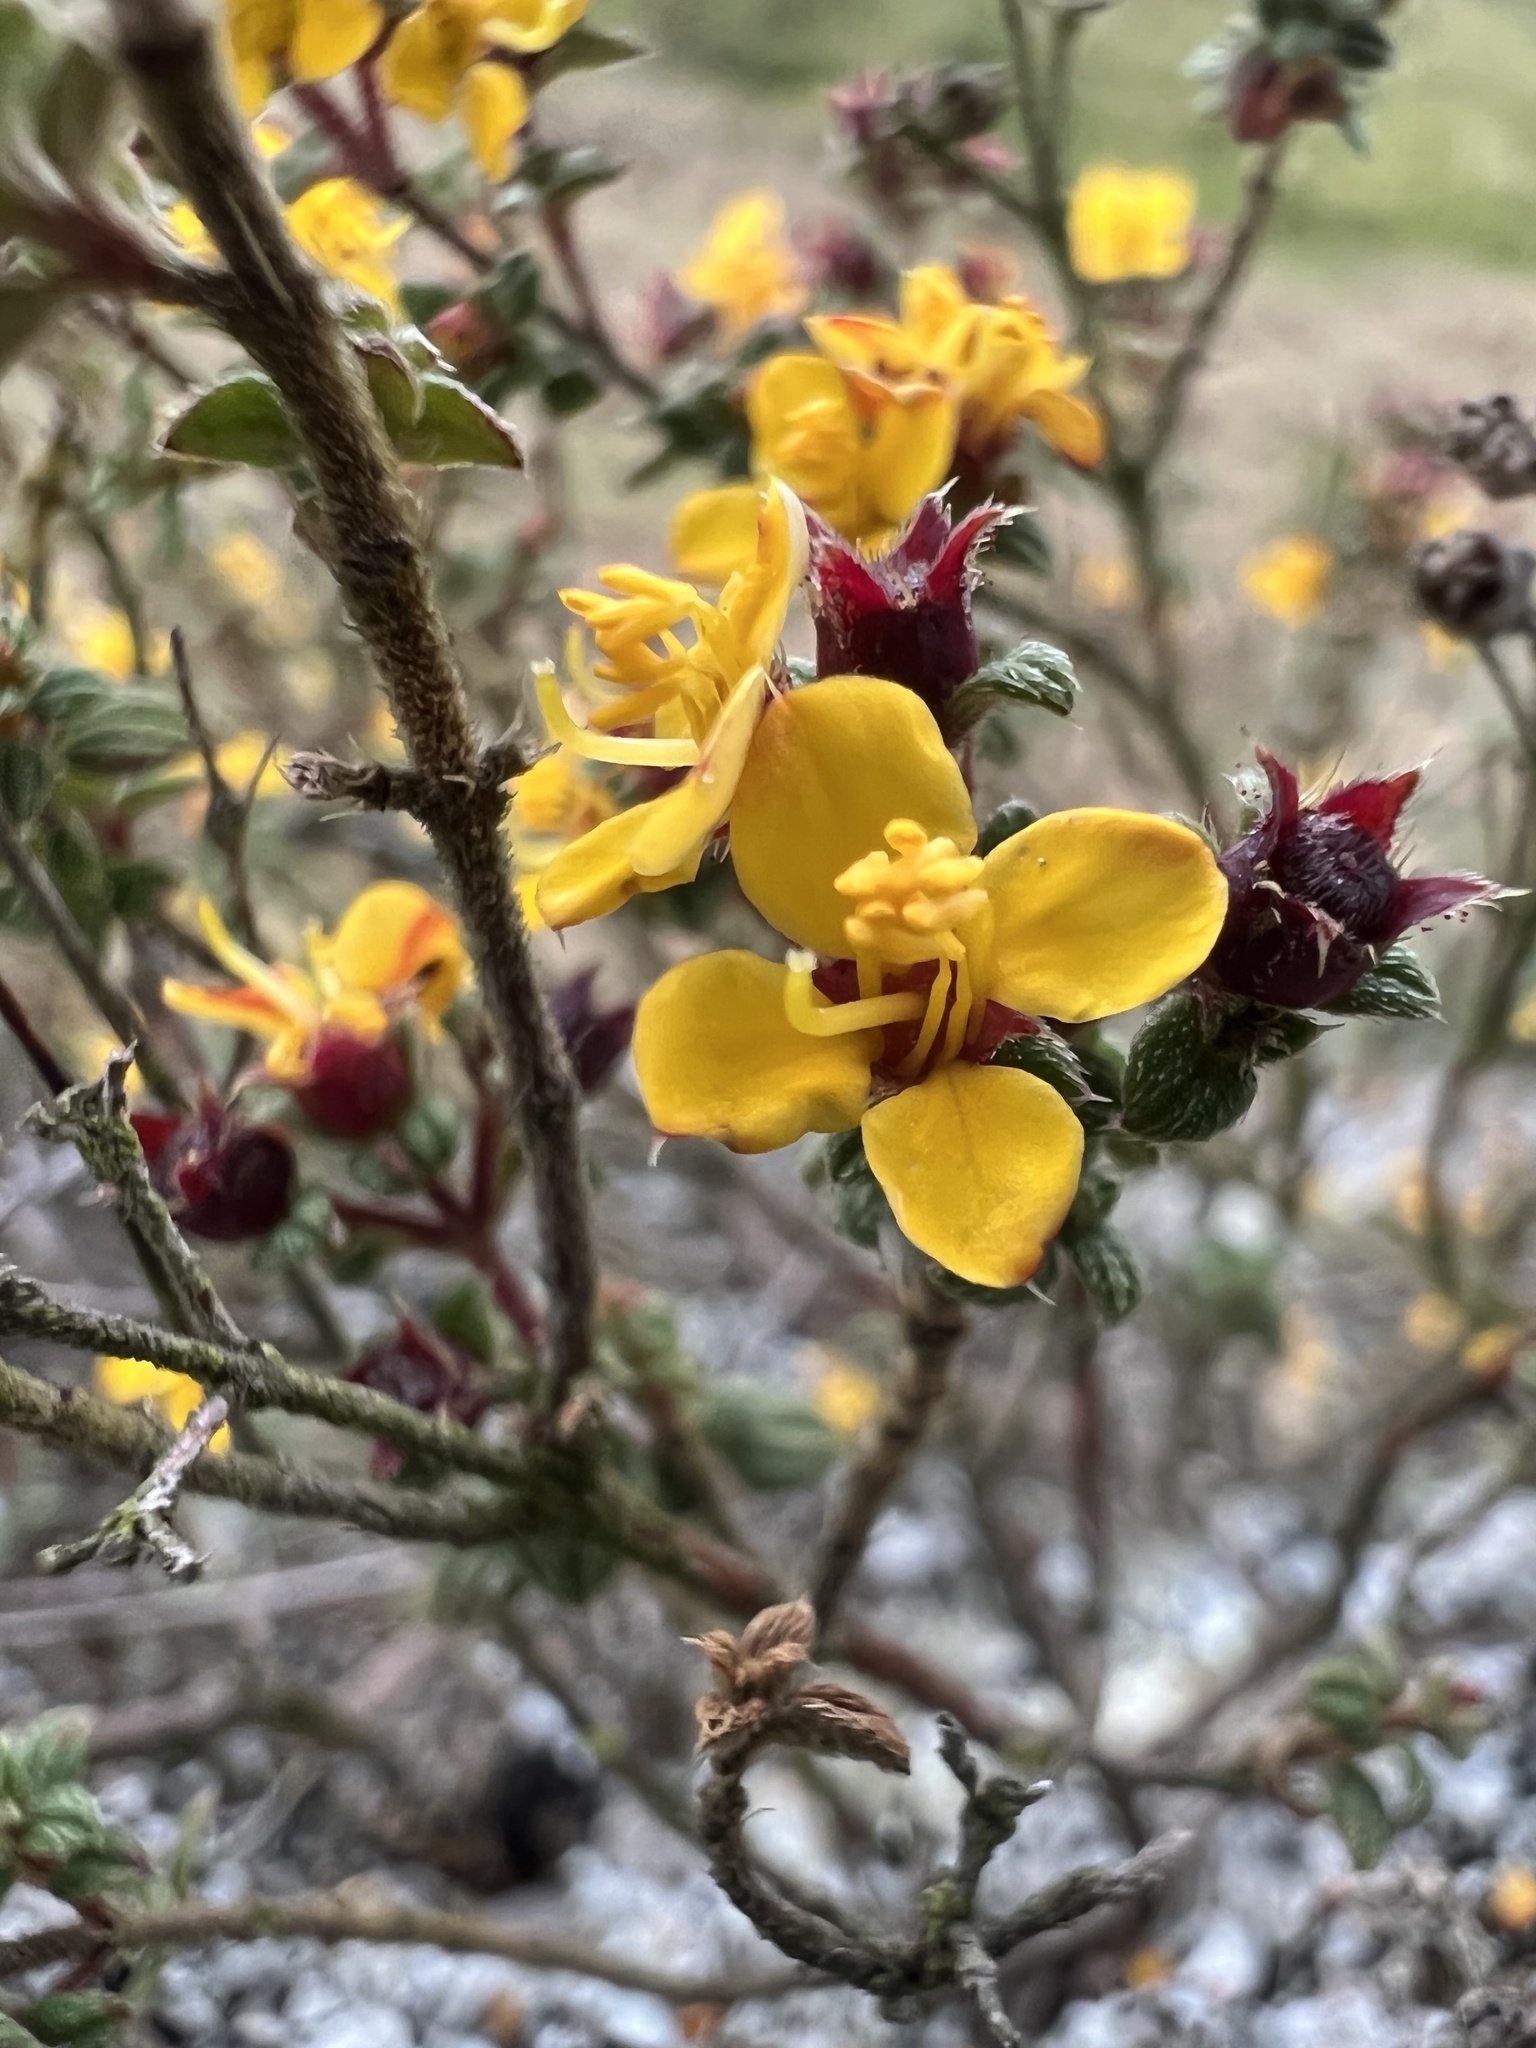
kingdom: Plantae
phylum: Tracheophyta
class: Magnoliopsida
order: Myrtales
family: Melastomataceae
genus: Chaetolepis
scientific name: Chaetolepis microphylla
